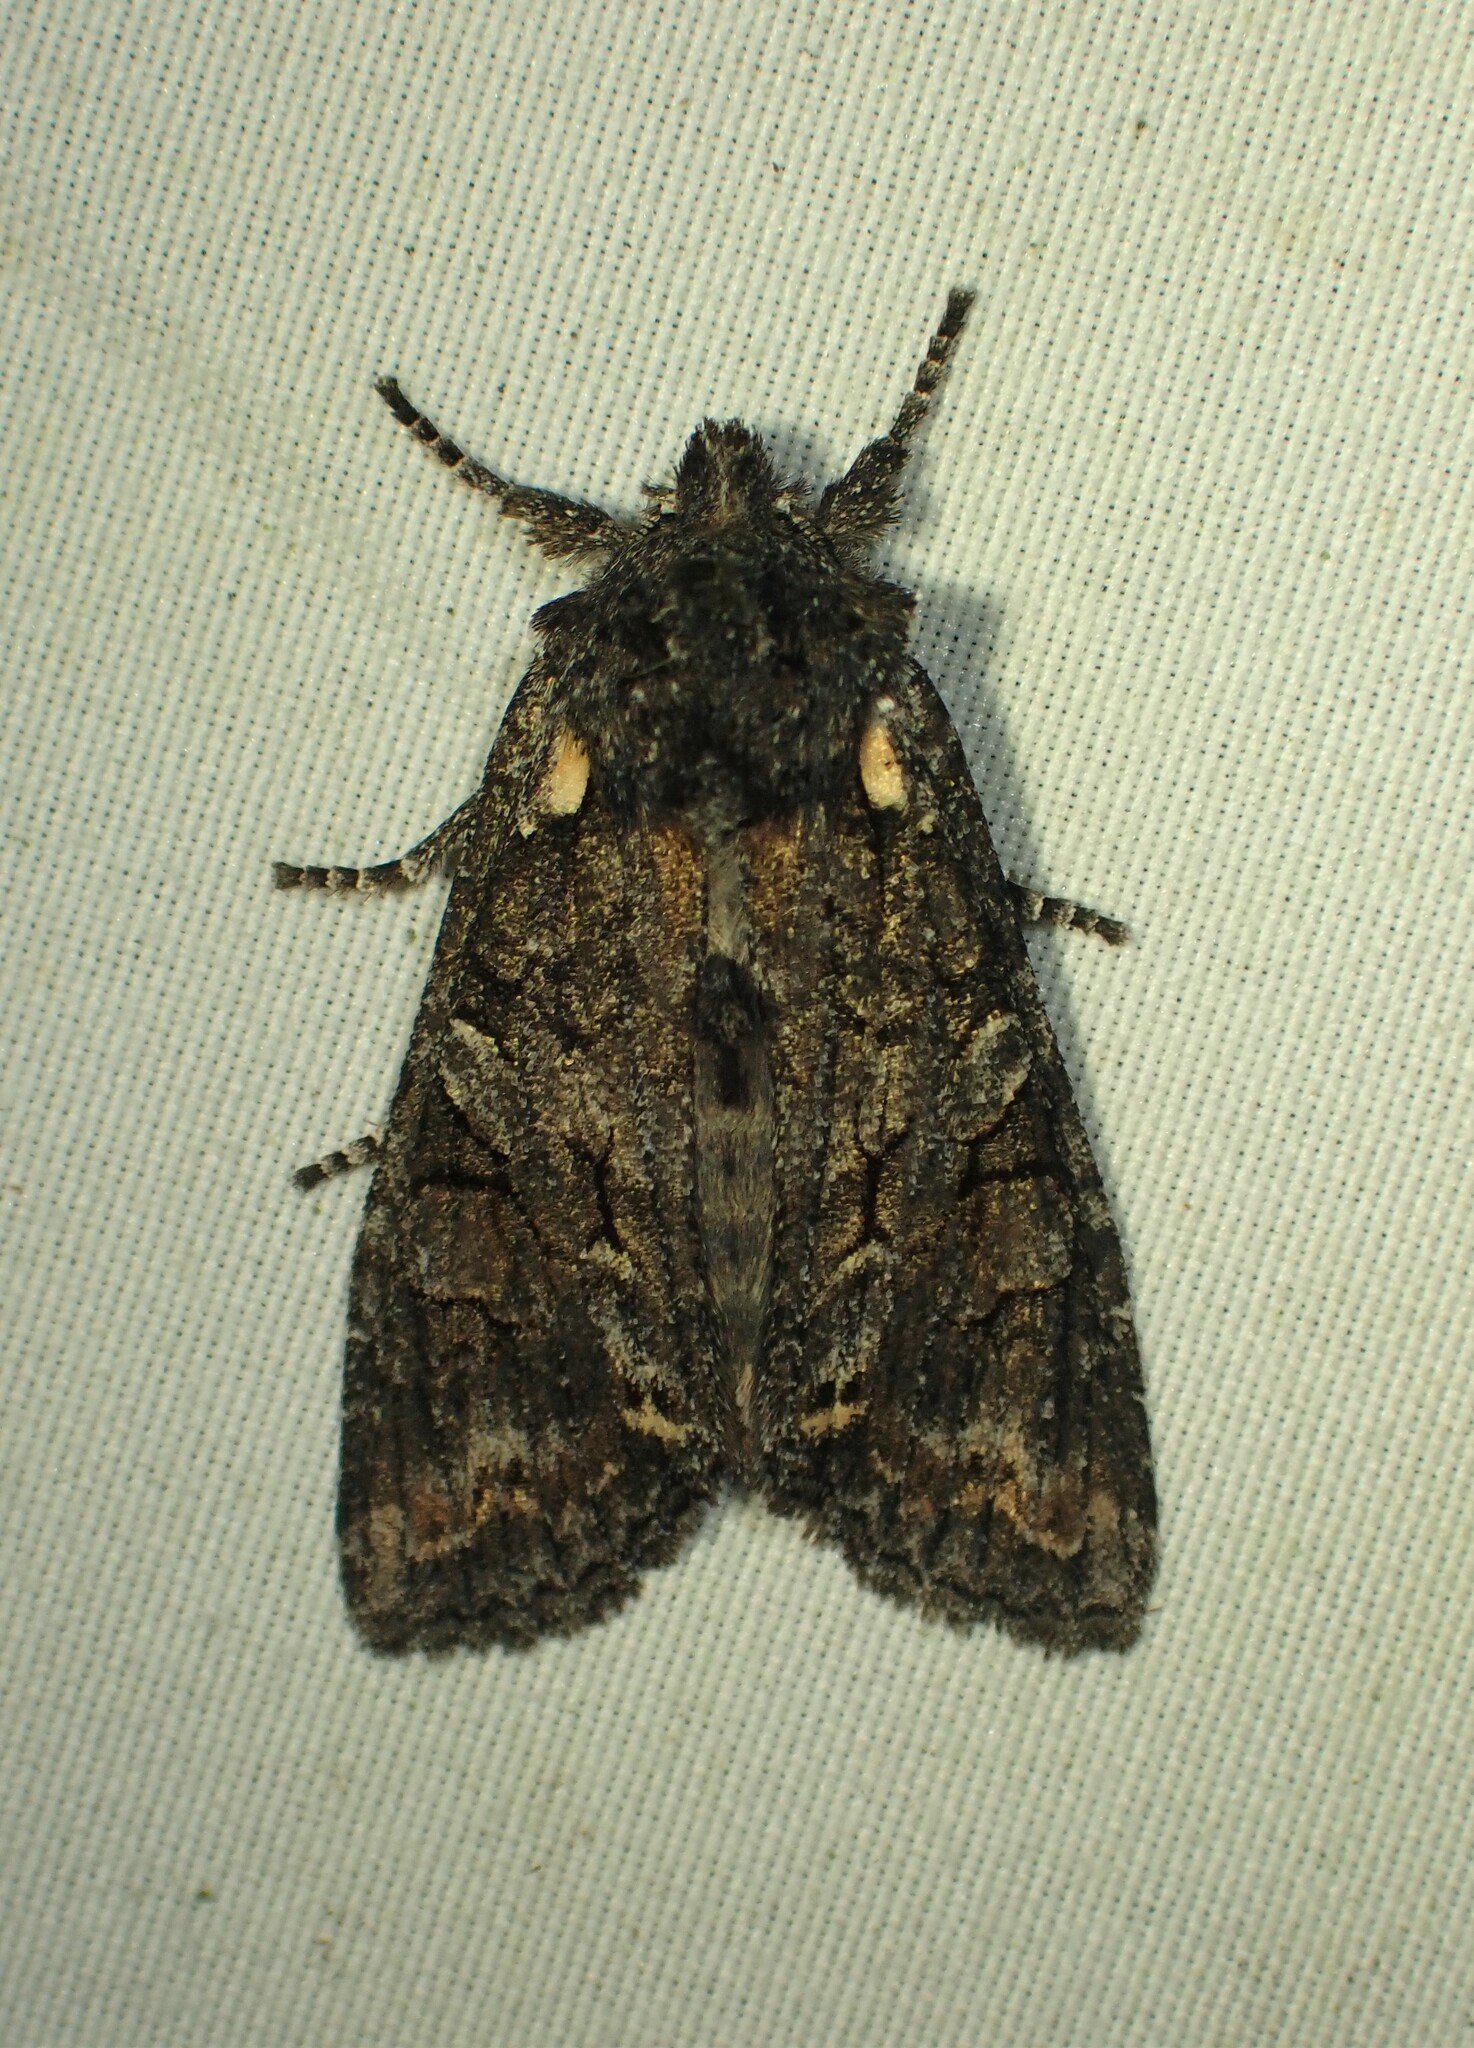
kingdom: Animalia
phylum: Arthropoda
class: Insecta
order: Lepidoptera
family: Noctuidae
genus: Lithophane
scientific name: Lithophane pexata
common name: Plush-naped pinion moth
